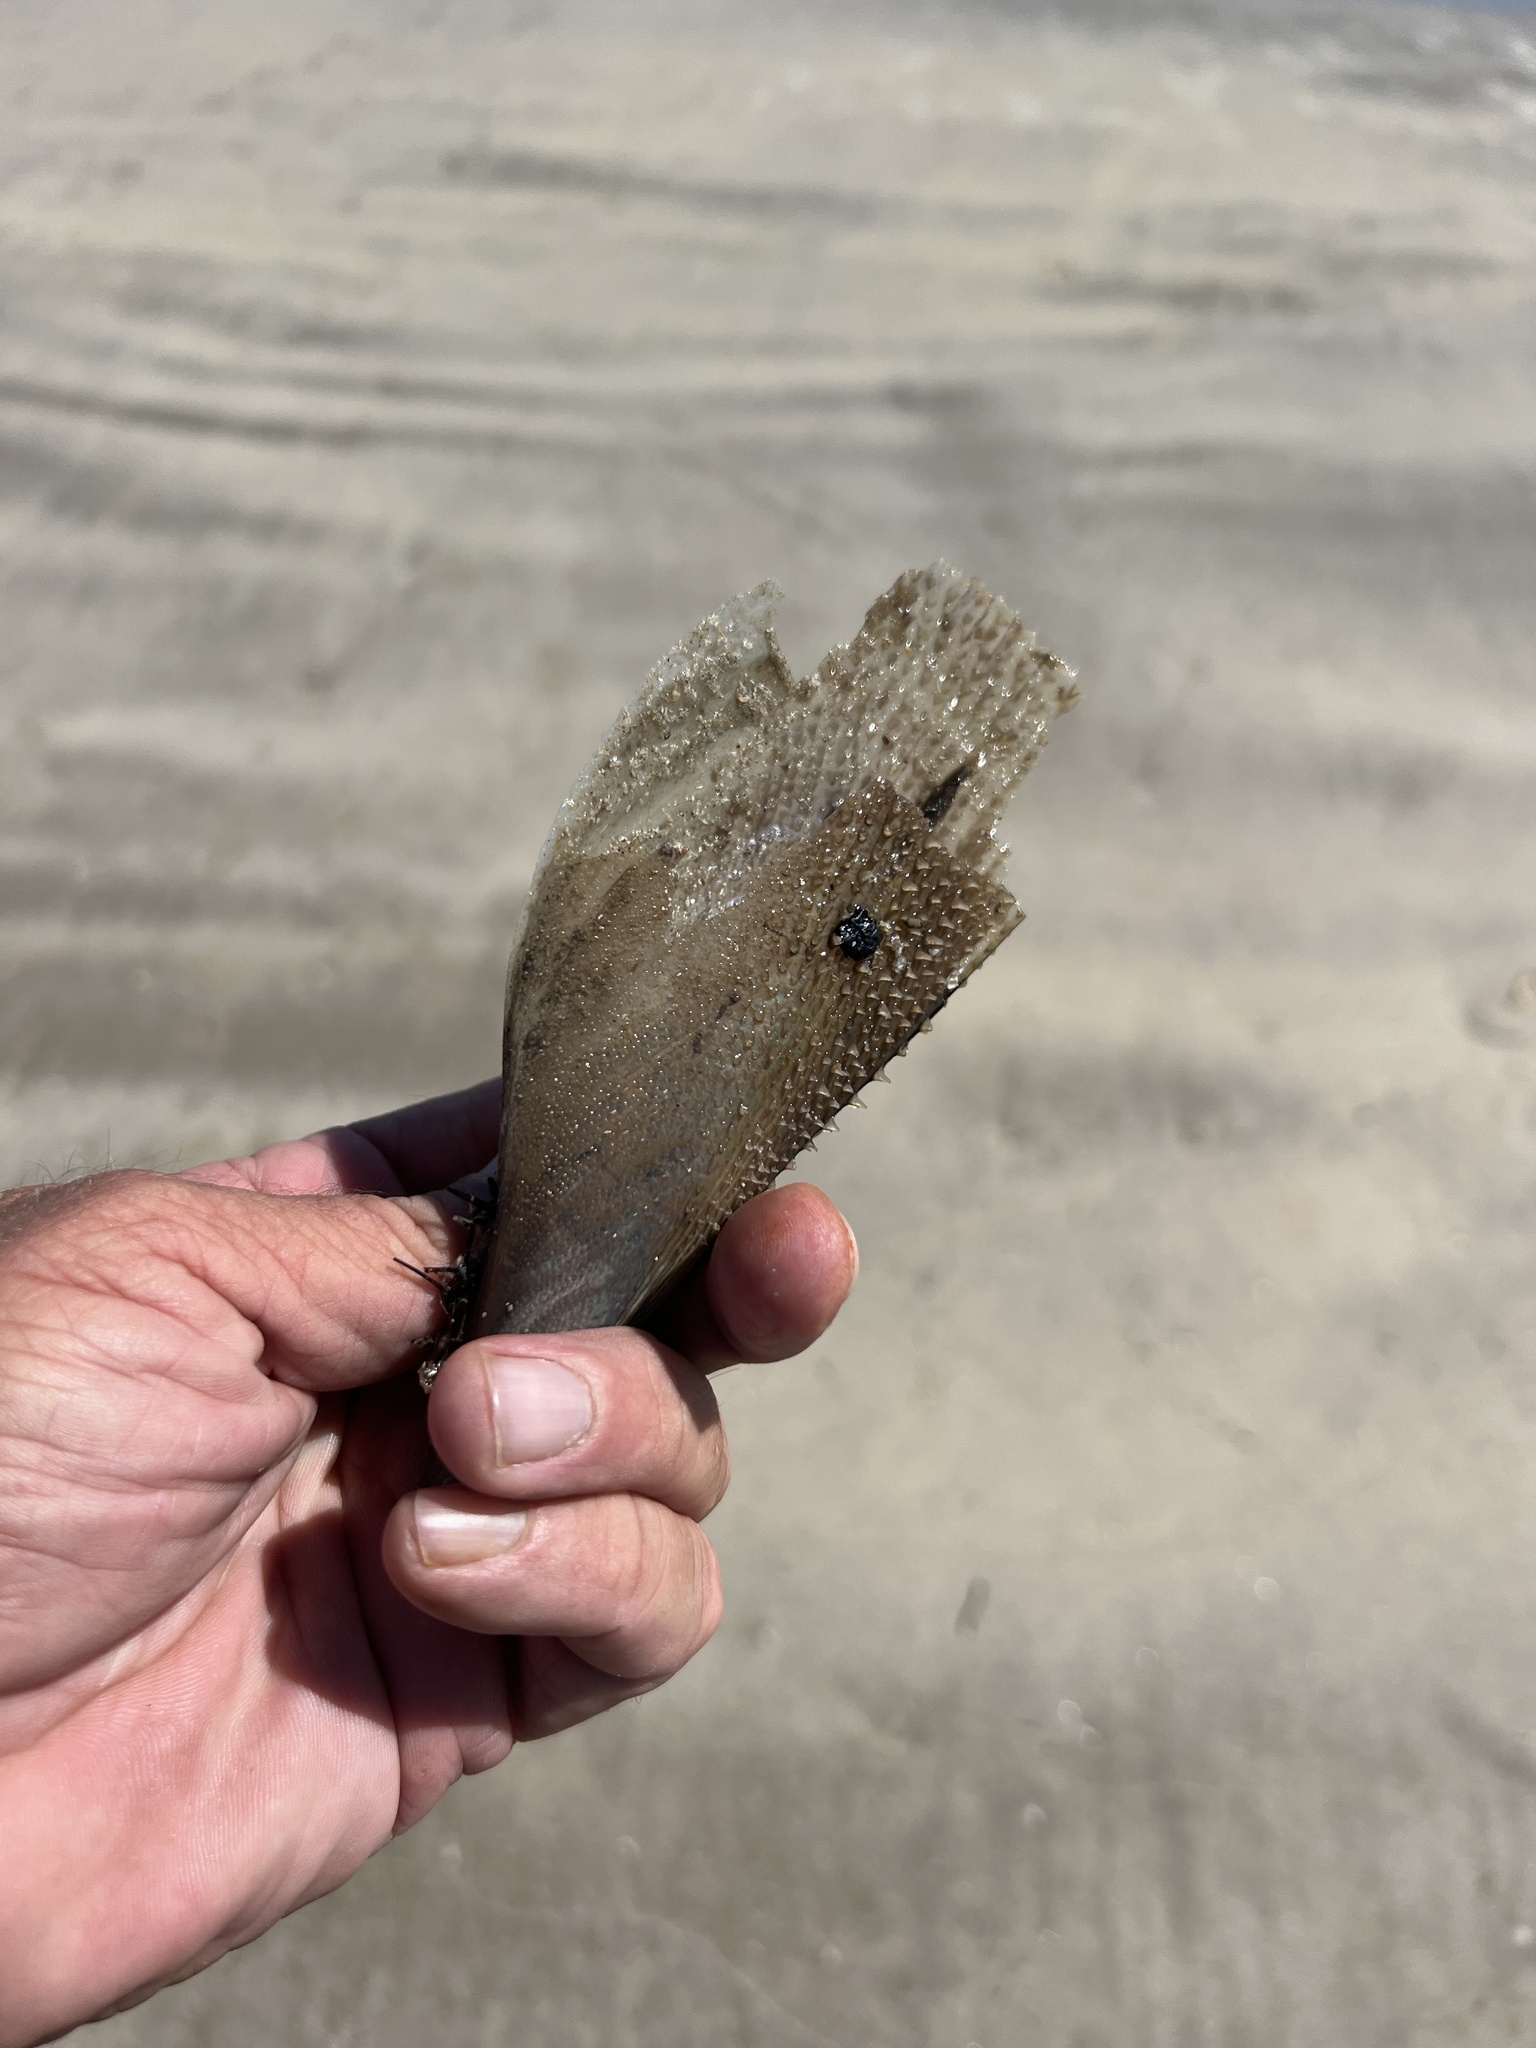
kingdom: Animalia
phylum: Mollusca
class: Bivalvia
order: Ostreida
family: Pinnidae
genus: Atrina
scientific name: Atrina serrata
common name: Saw-toothed penshell
